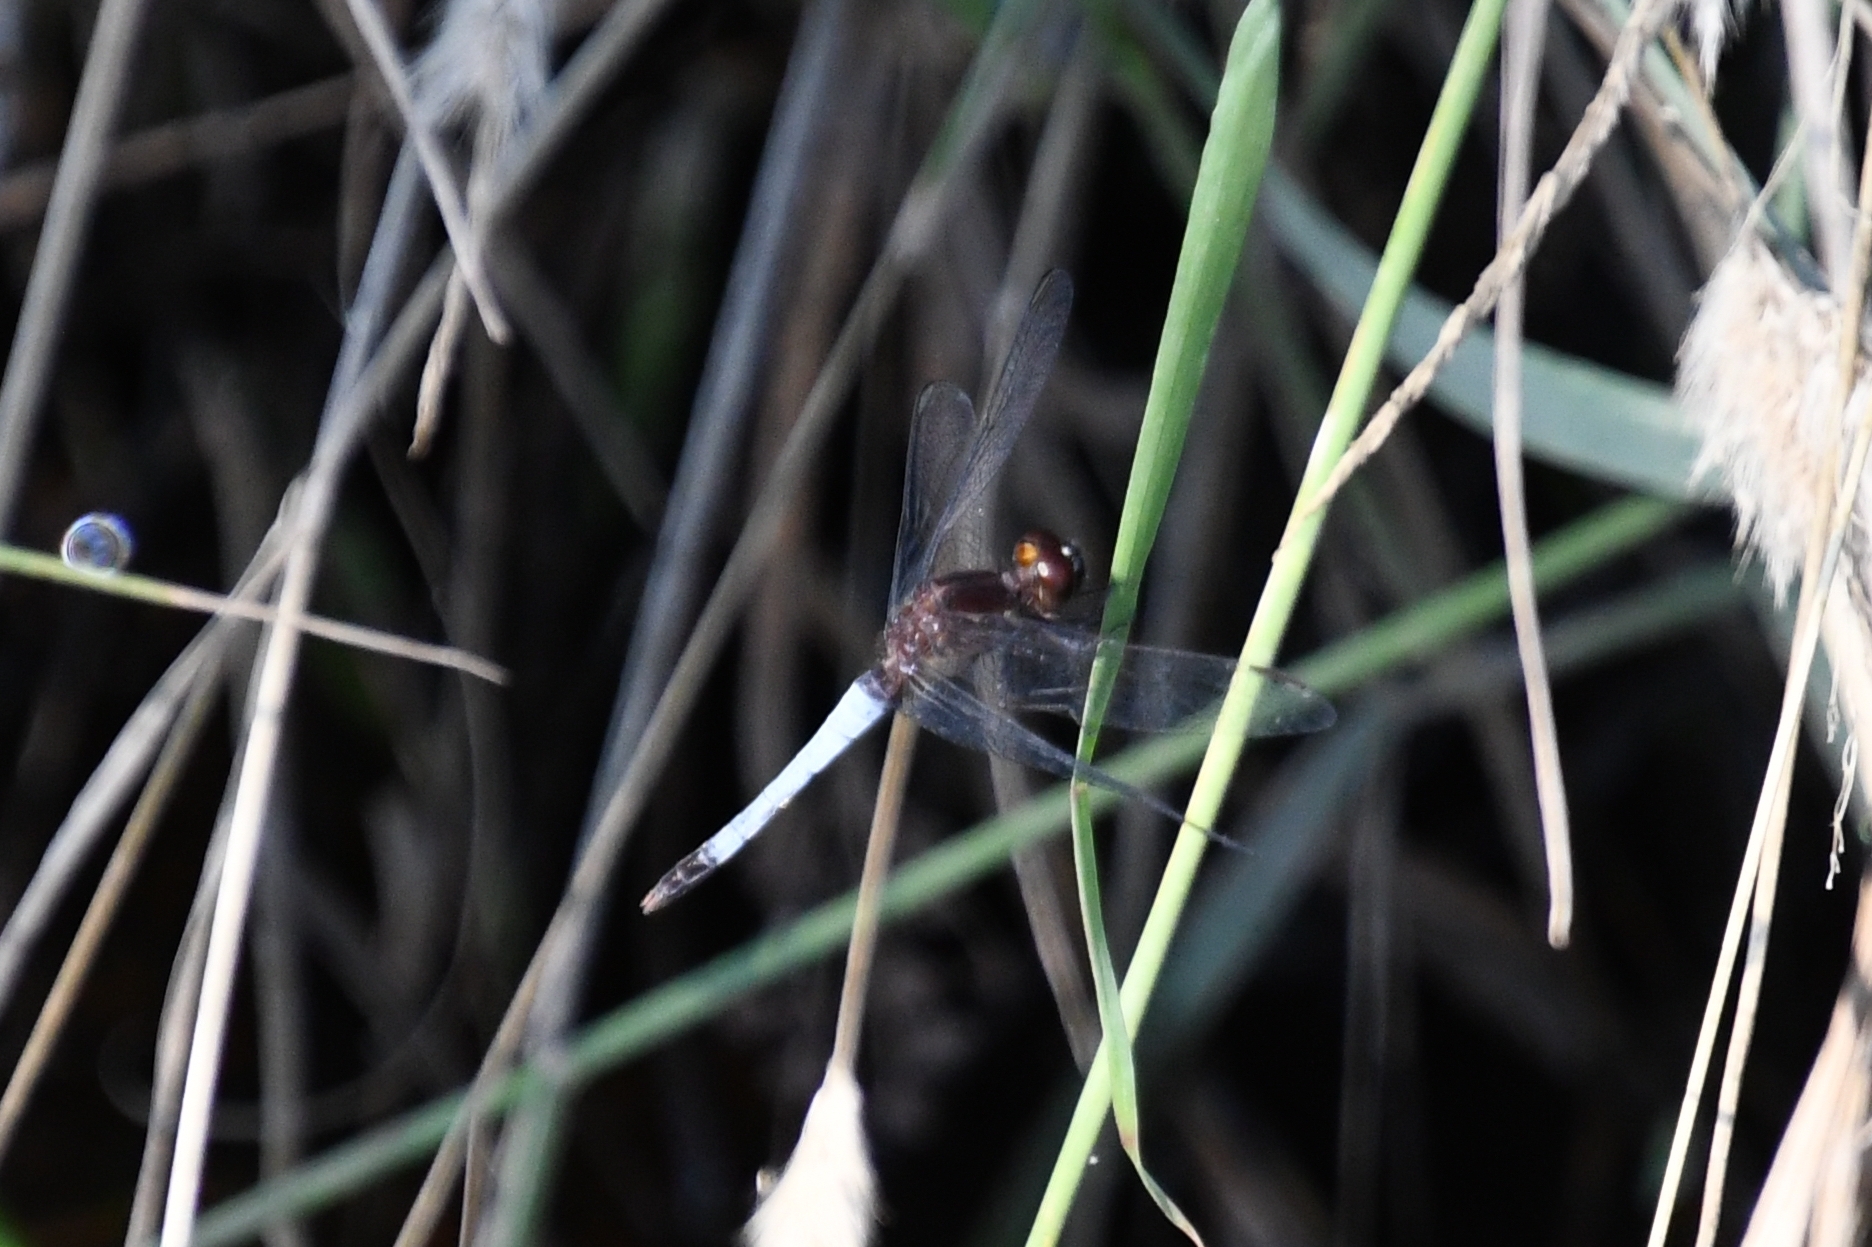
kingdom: Animalia
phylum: Arthropoda
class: Insecta
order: Odonata
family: Libellulidae
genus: Erythrodiplax
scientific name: Erythrodiplax basifusca
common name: Plateau dragonlet
